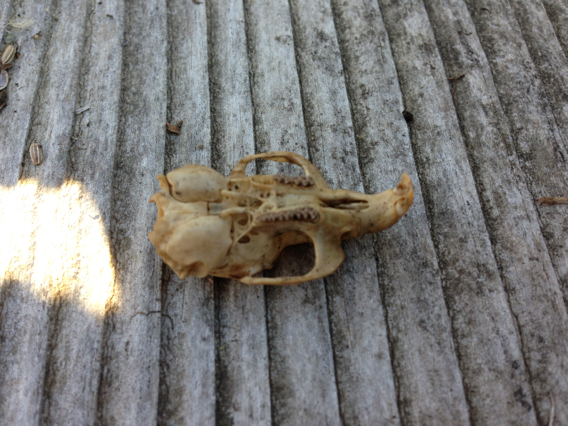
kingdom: Animalia
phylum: Chordata
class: Mammalia
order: Rodentia
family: Cricetidae
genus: Microtus
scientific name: Microtus californicus
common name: California vole
